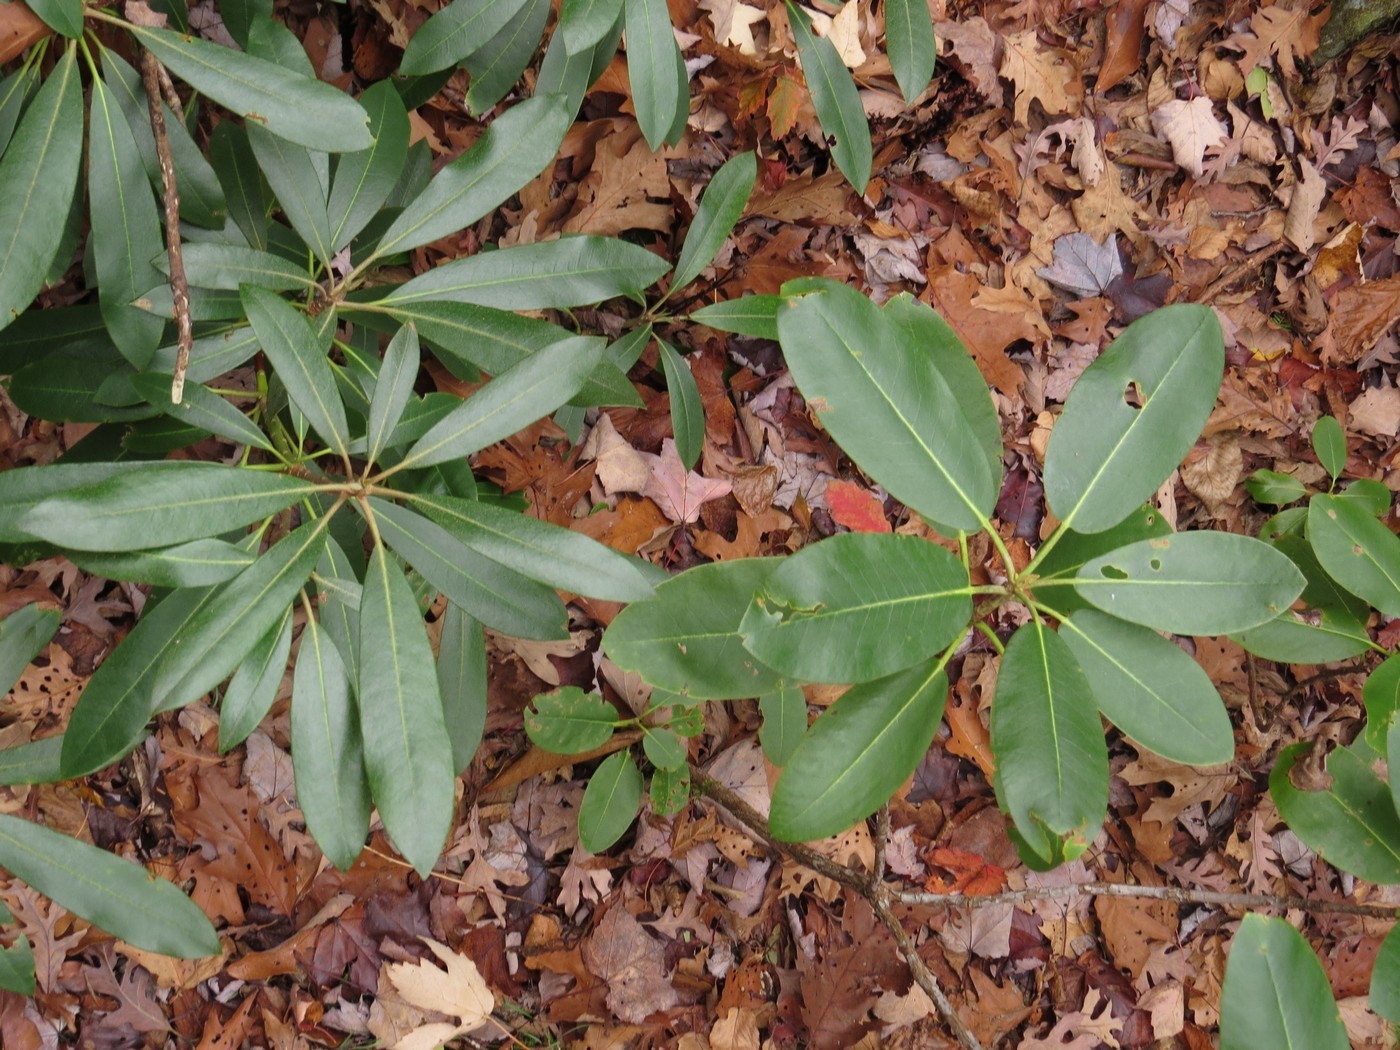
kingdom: Plantae
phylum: Tracheophyta
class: Magnoliopsida
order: Ericales
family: Ericaceae
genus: Rhododendron
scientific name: Rhododendron catawbiense
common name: Catawba rhododendron
